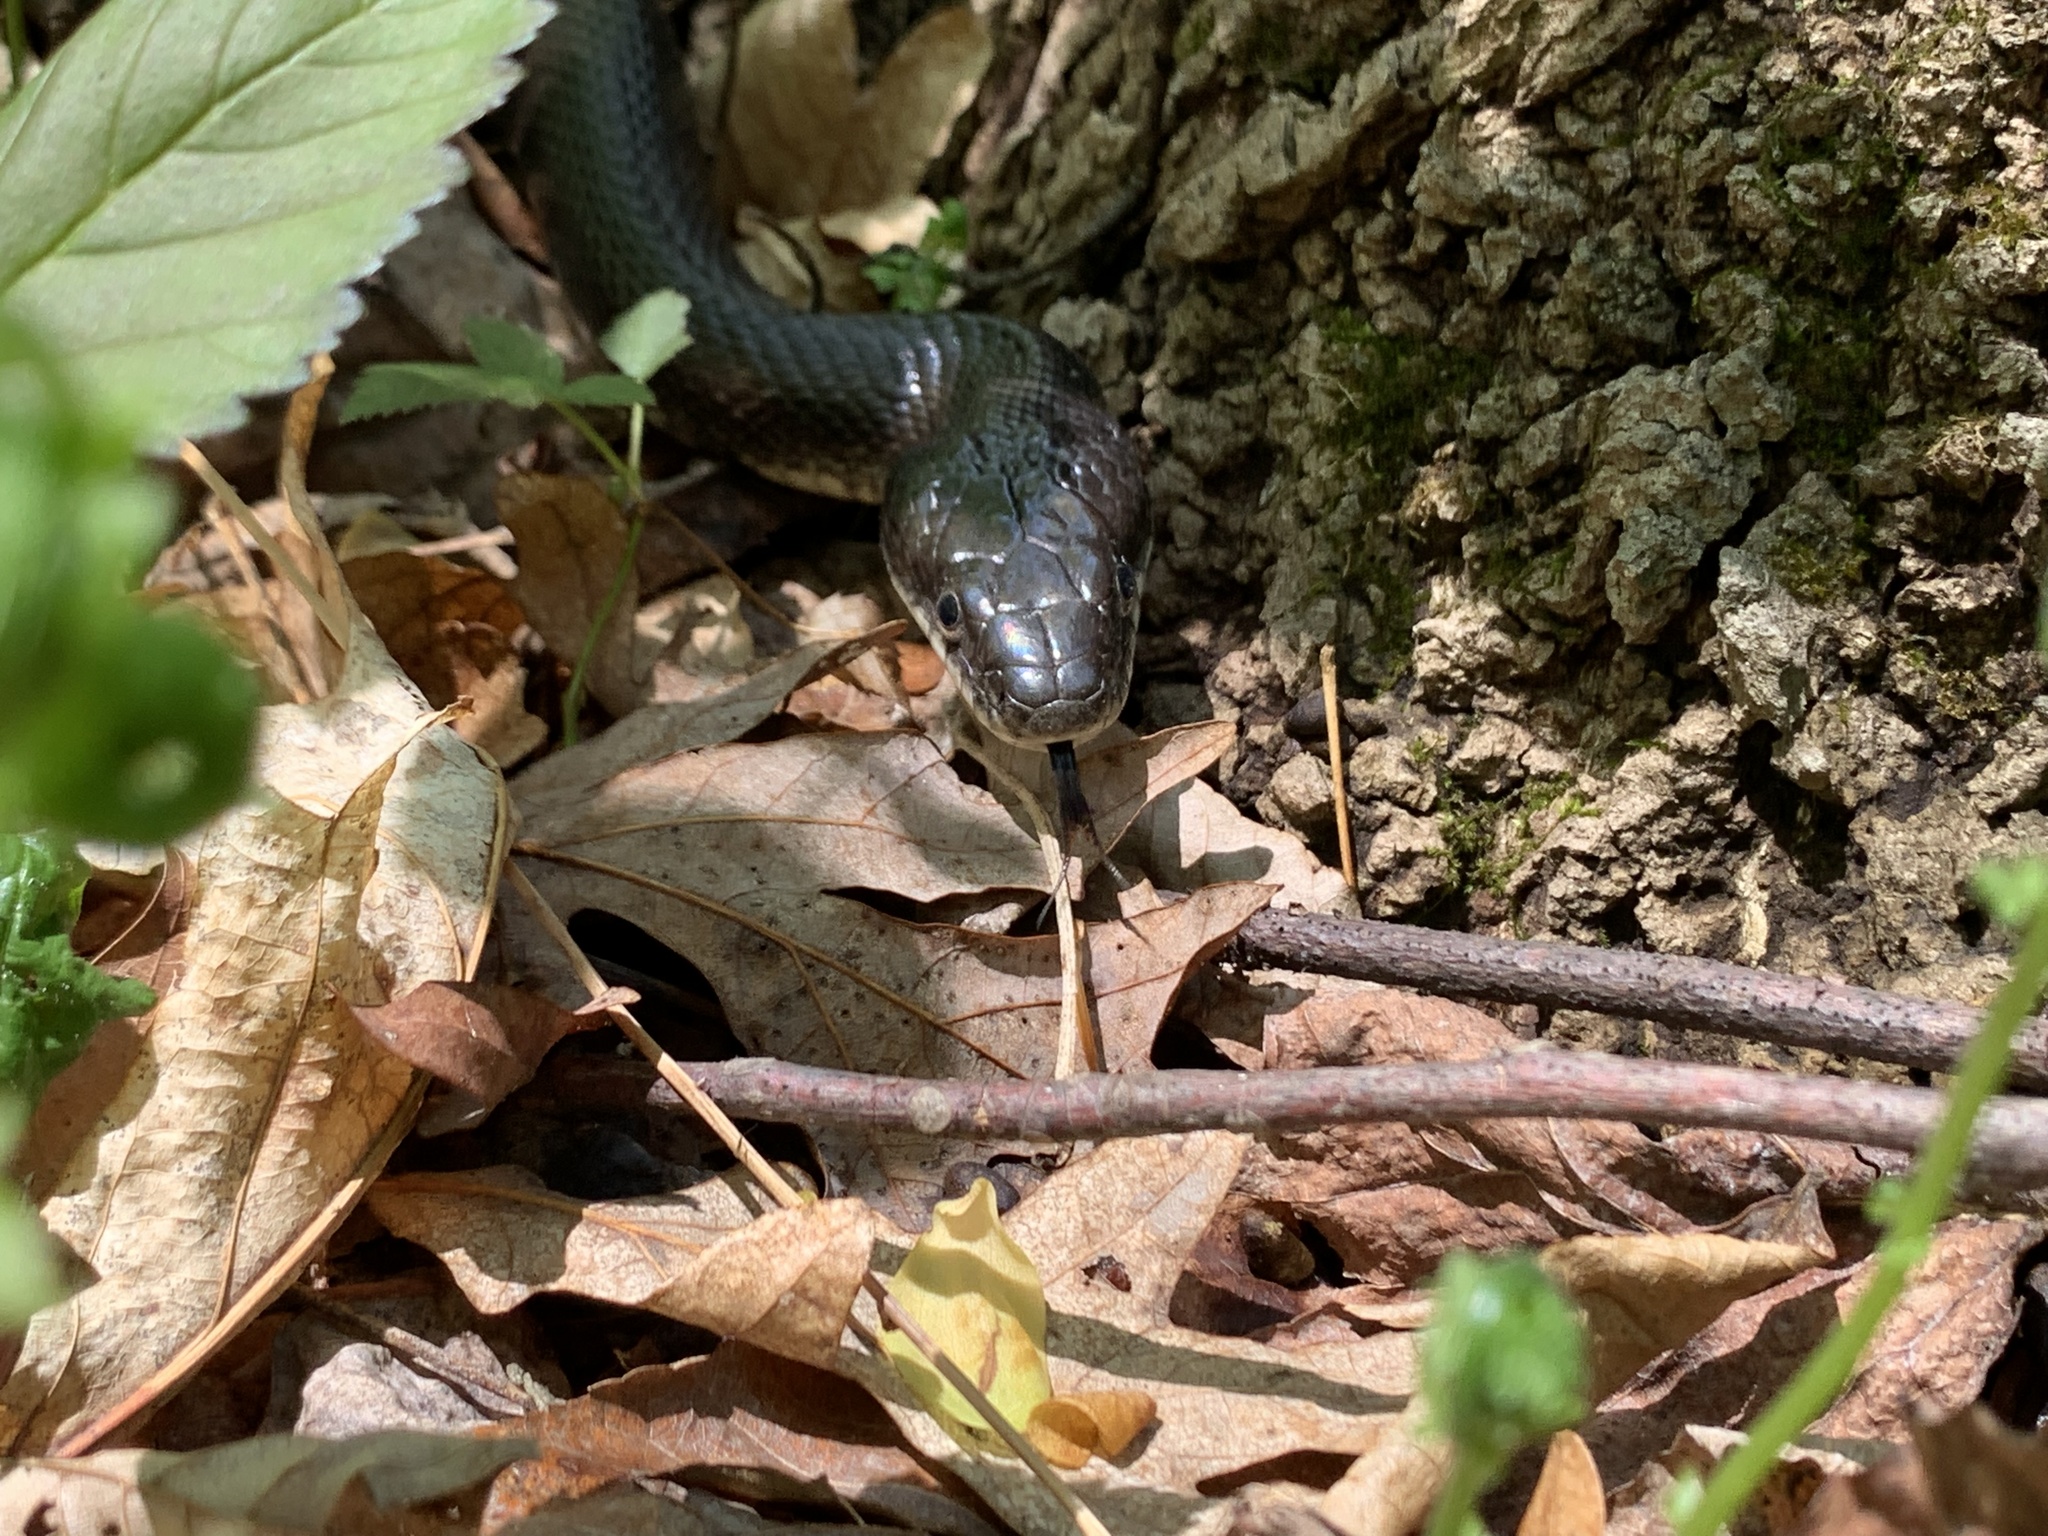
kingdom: Animalia
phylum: Chordata
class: Squamata
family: Colubridae
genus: Pantherophis
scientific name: Pantherophis alleghaniensis
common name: Eastern rat snake
